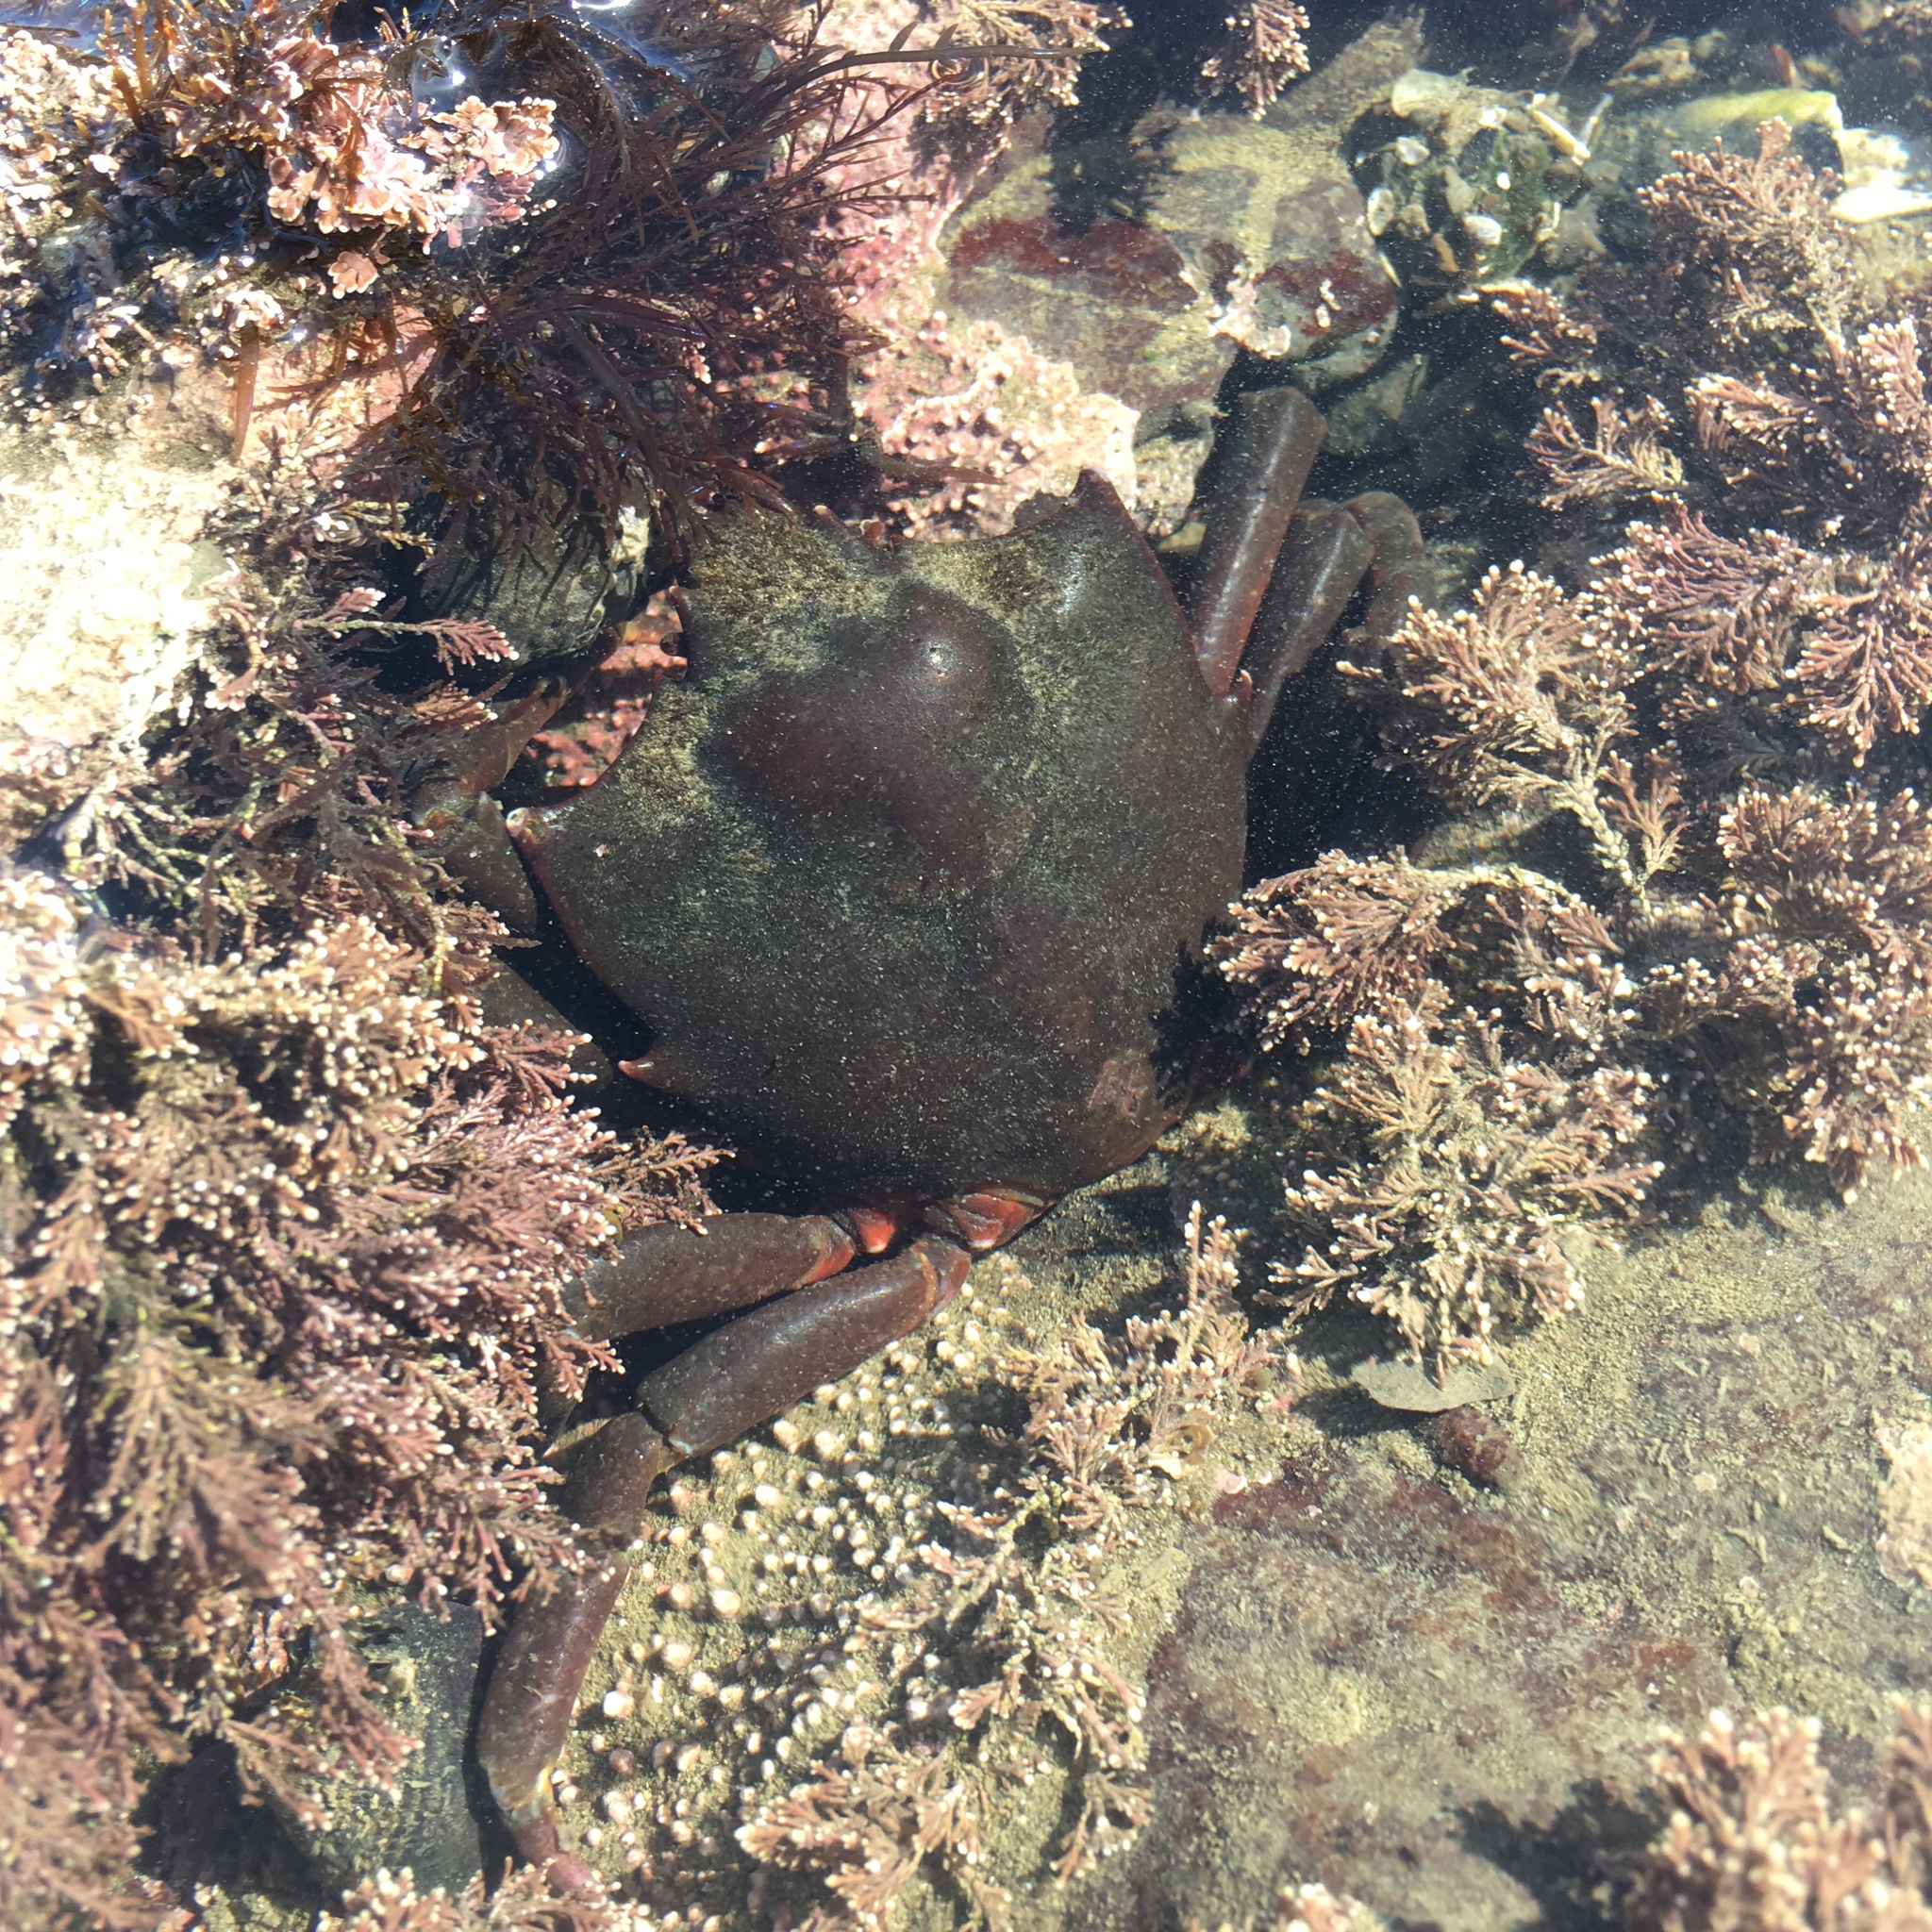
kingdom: Animalia
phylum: Arthropoda
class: Malacostraca
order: Decapoda
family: Epialtidae
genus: Pugettia
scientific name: Pugettia producta
